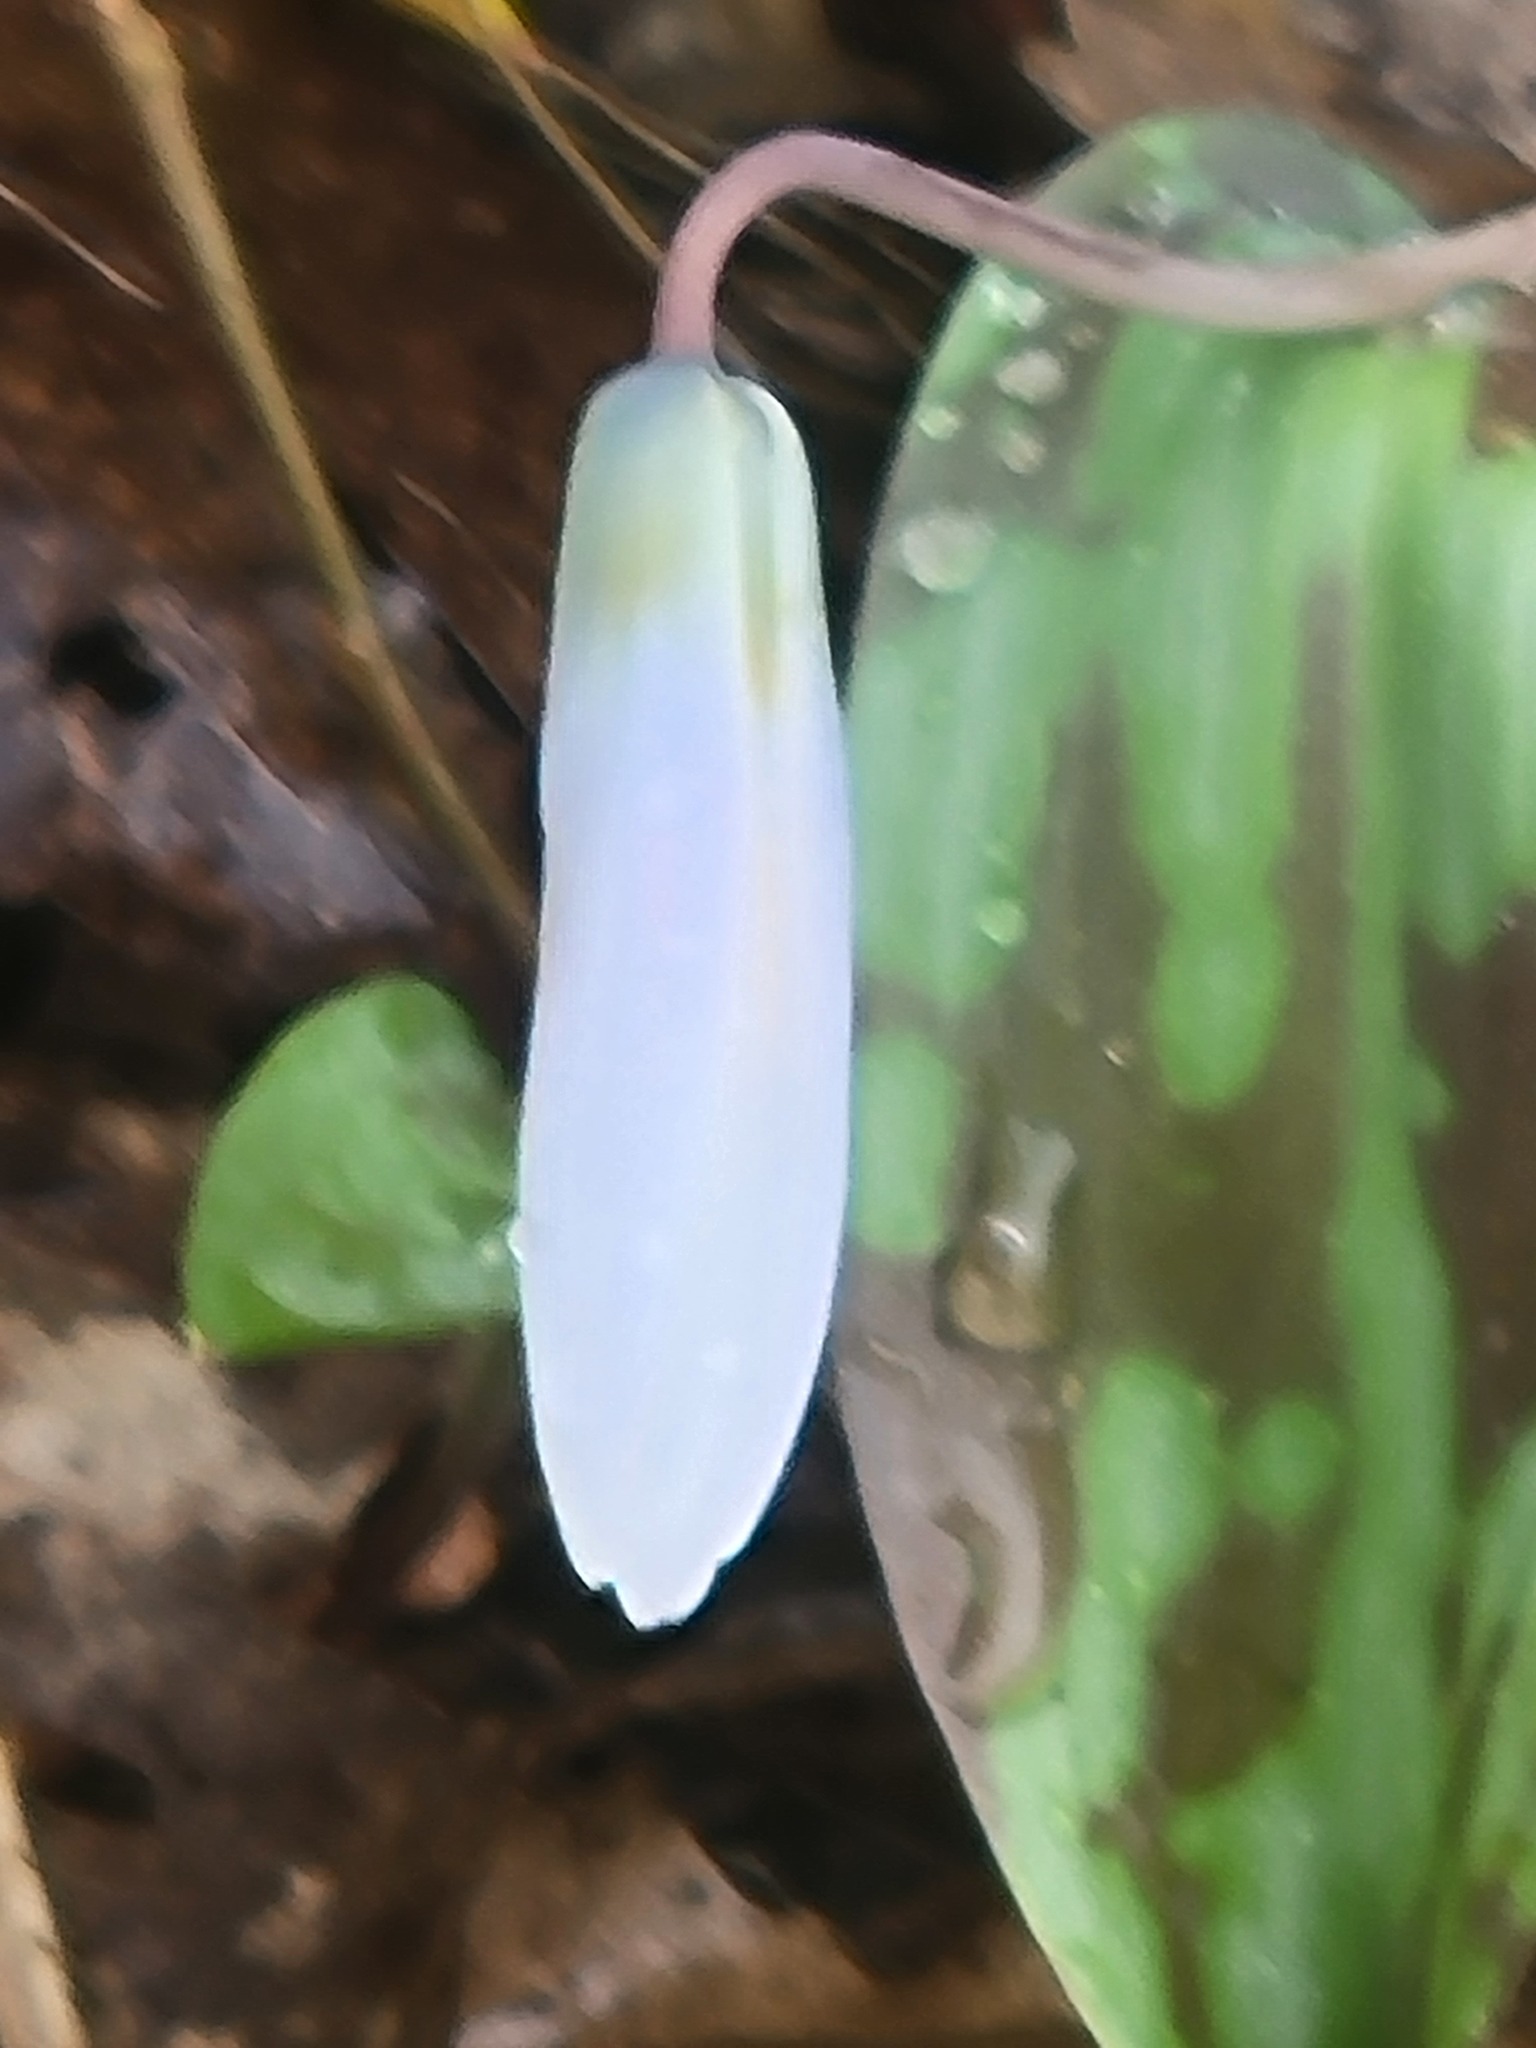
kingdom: Plantae
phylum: Tracheophyta
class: Liliopsida
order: Liliales
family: Liliaceae
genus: Erythronium
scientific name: Erythronium albidum
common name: White trout-lily
